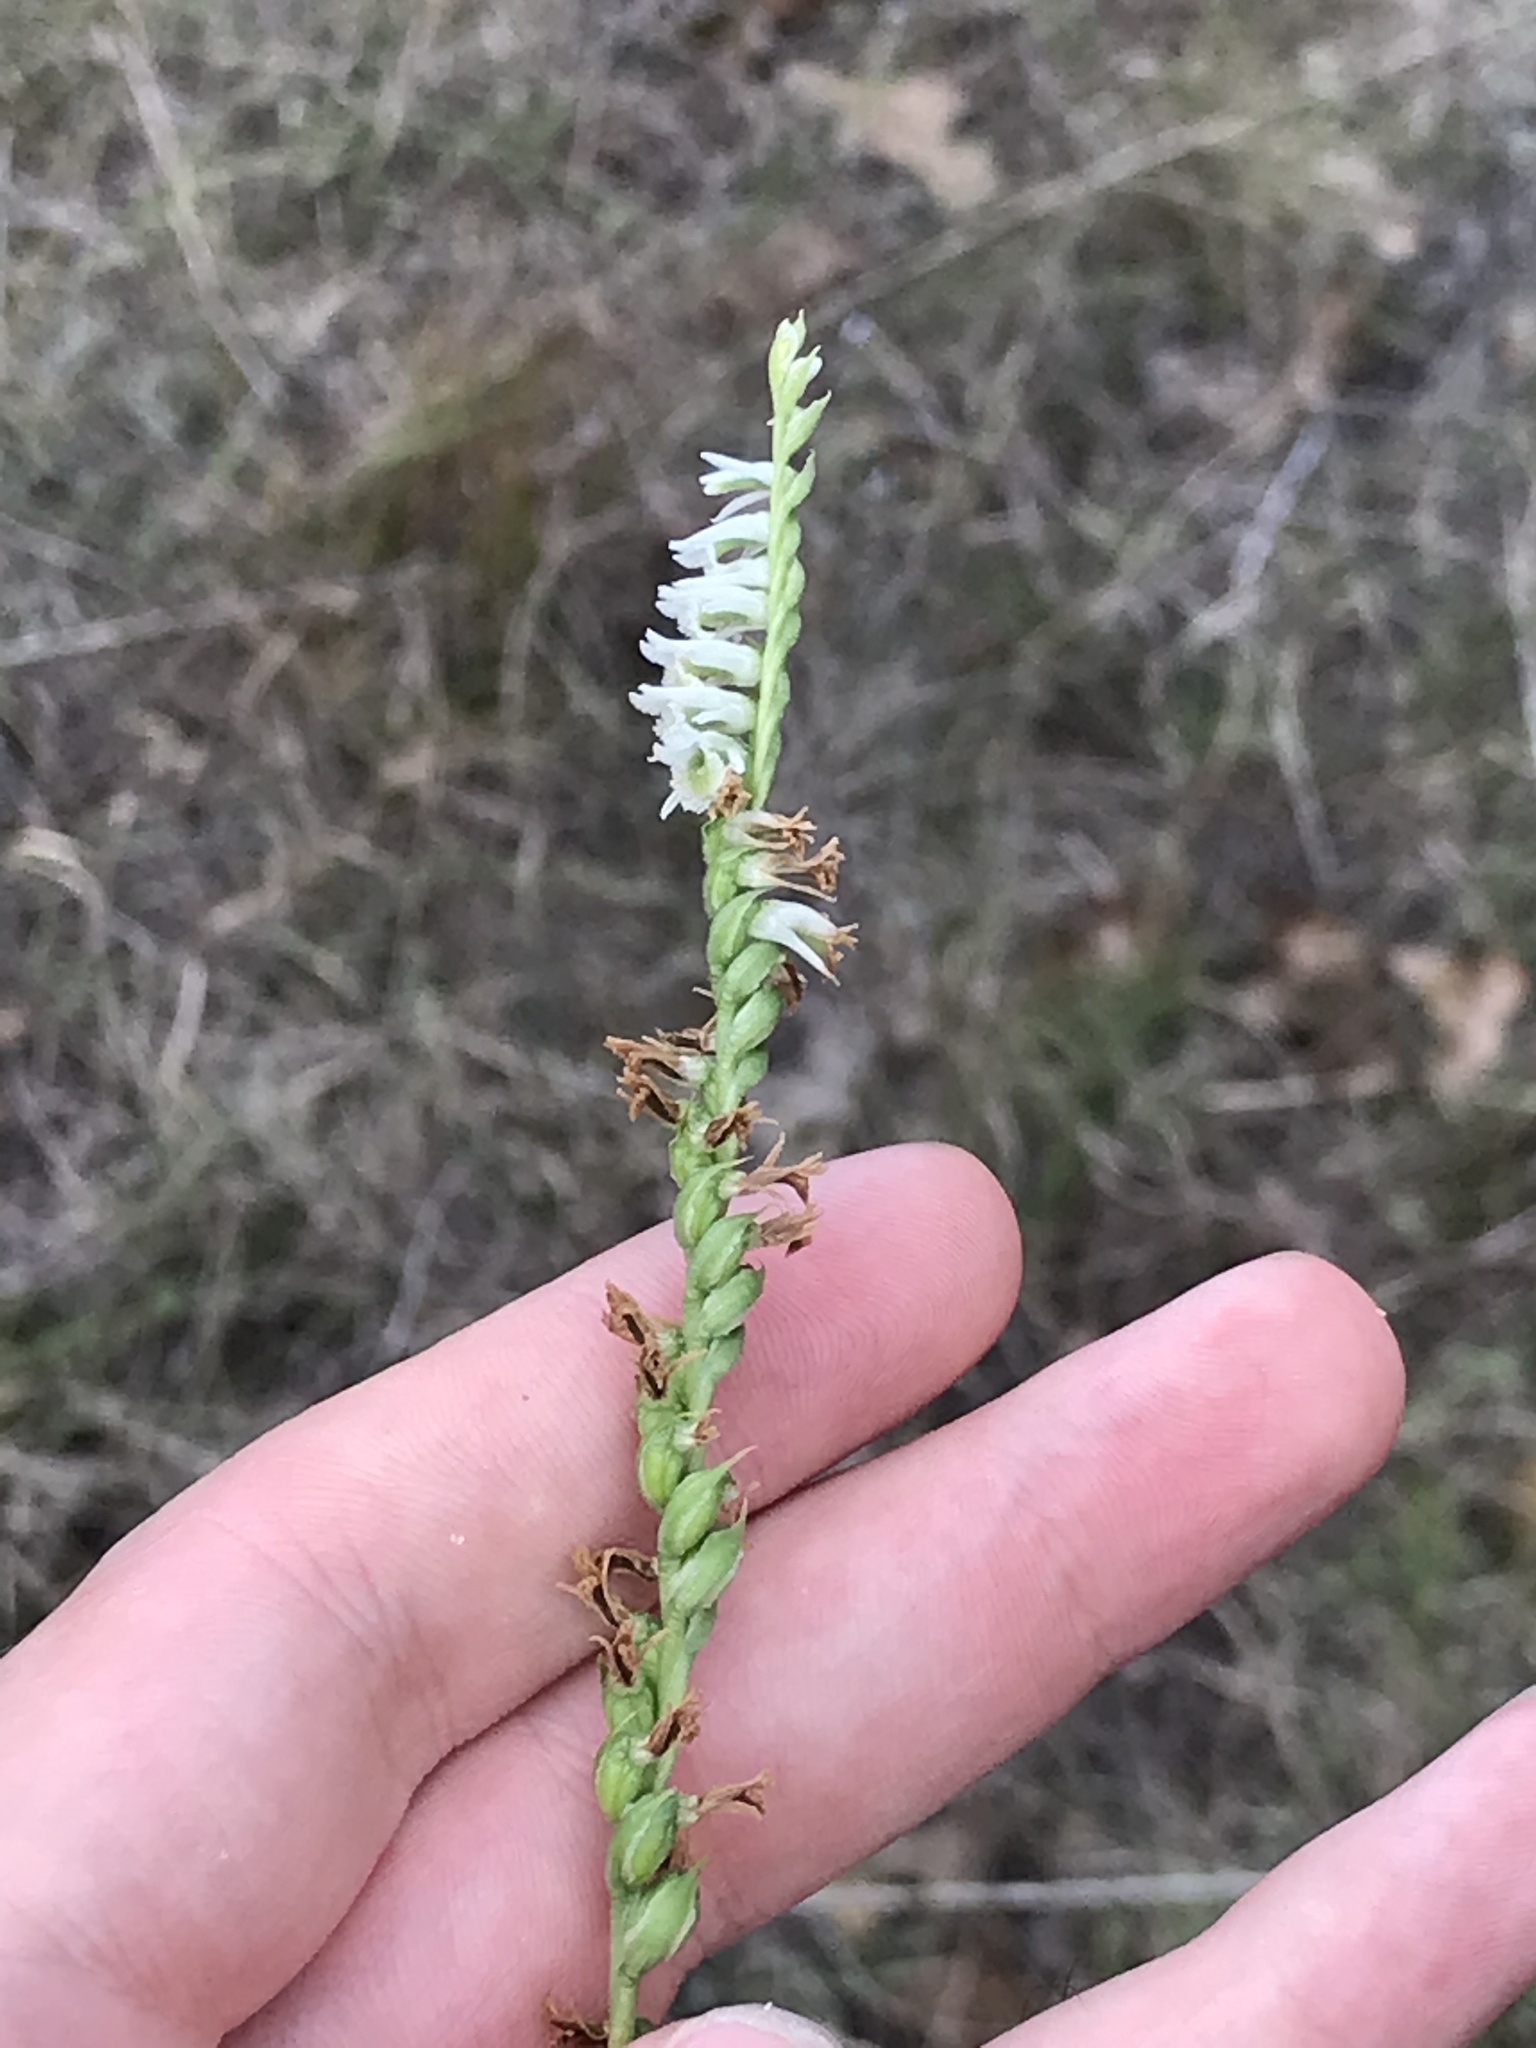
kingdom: Plantae
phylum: Tracheophyta
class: Liliopsida
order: Asparagales
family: Orchidaceae
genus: Spiranthes
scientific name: Spiranthes lacera
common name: Northern slender ladies'-tresses
